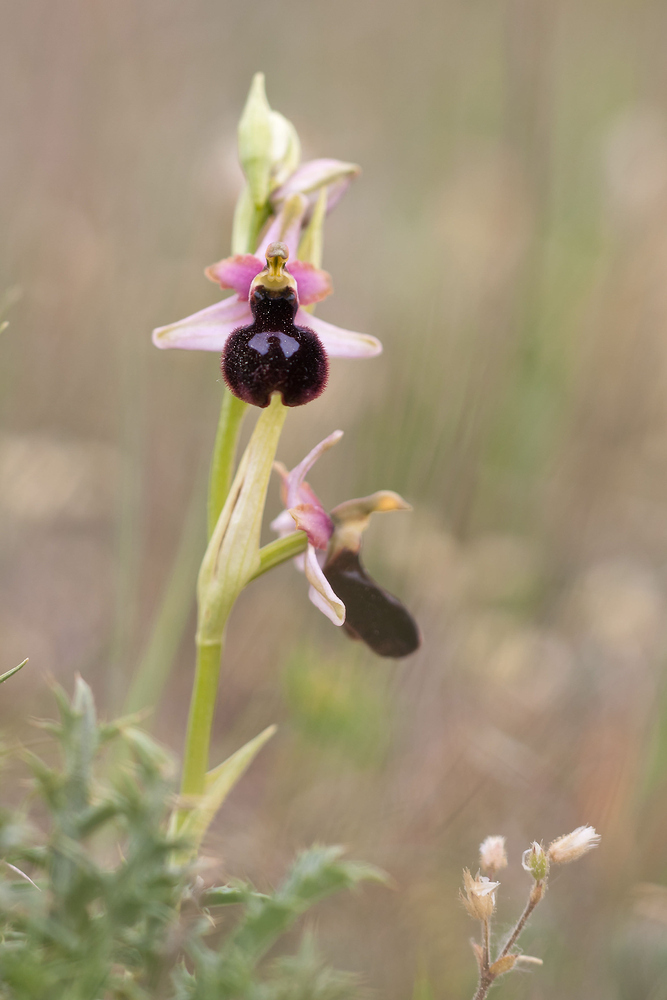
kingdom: Plantae
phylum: Tracheophyta
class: Liliopsida
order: Asparagales
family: Orchidaceae
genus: Ophrys
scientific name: Ophrys flavicans
